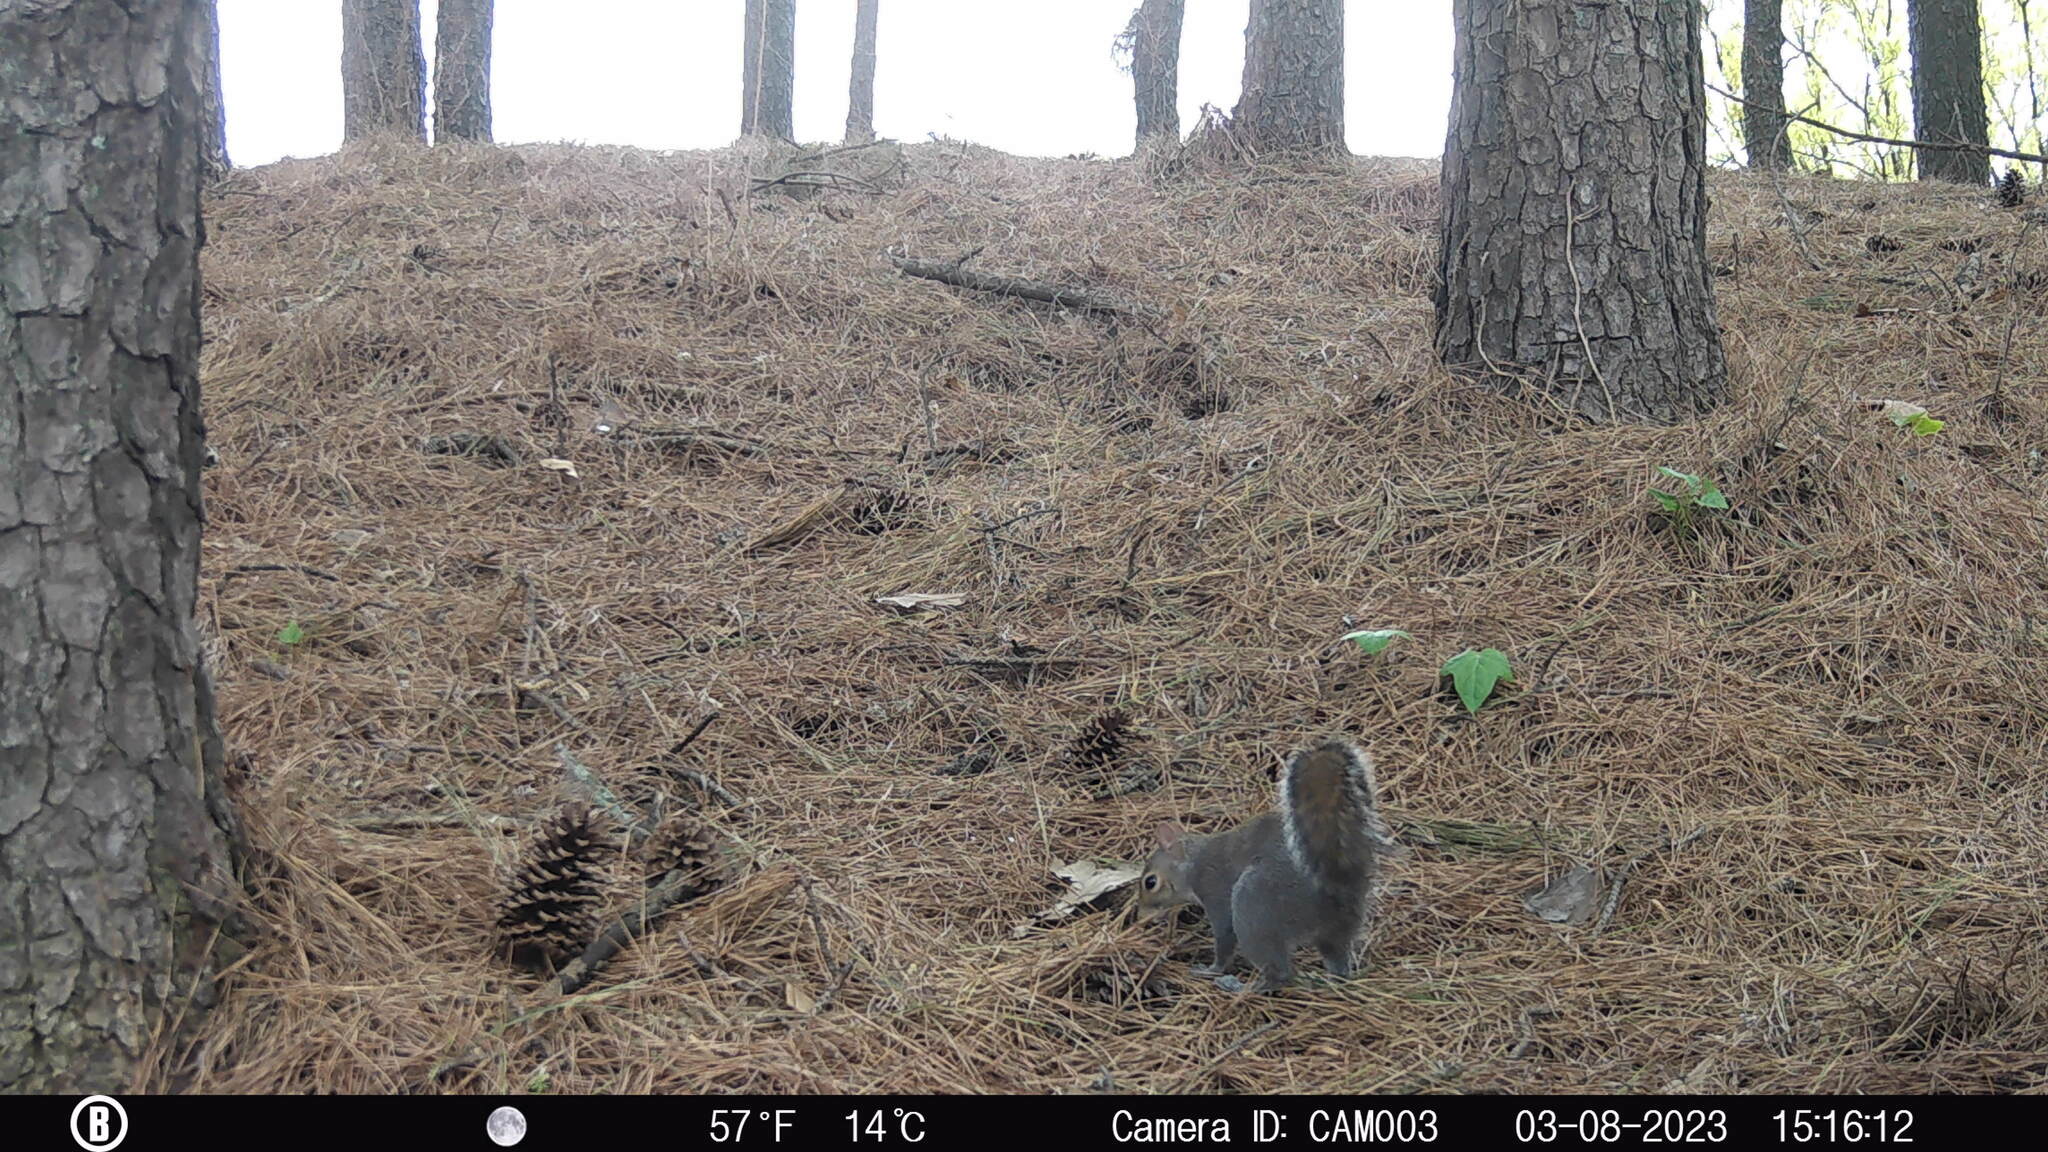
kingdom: Animalia
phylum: Chordata
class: Mammalia
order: Rodentia
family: Sciuridae
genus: Sciurus
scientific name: Sciurus carolinensis
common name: Eastern gray squirrel
